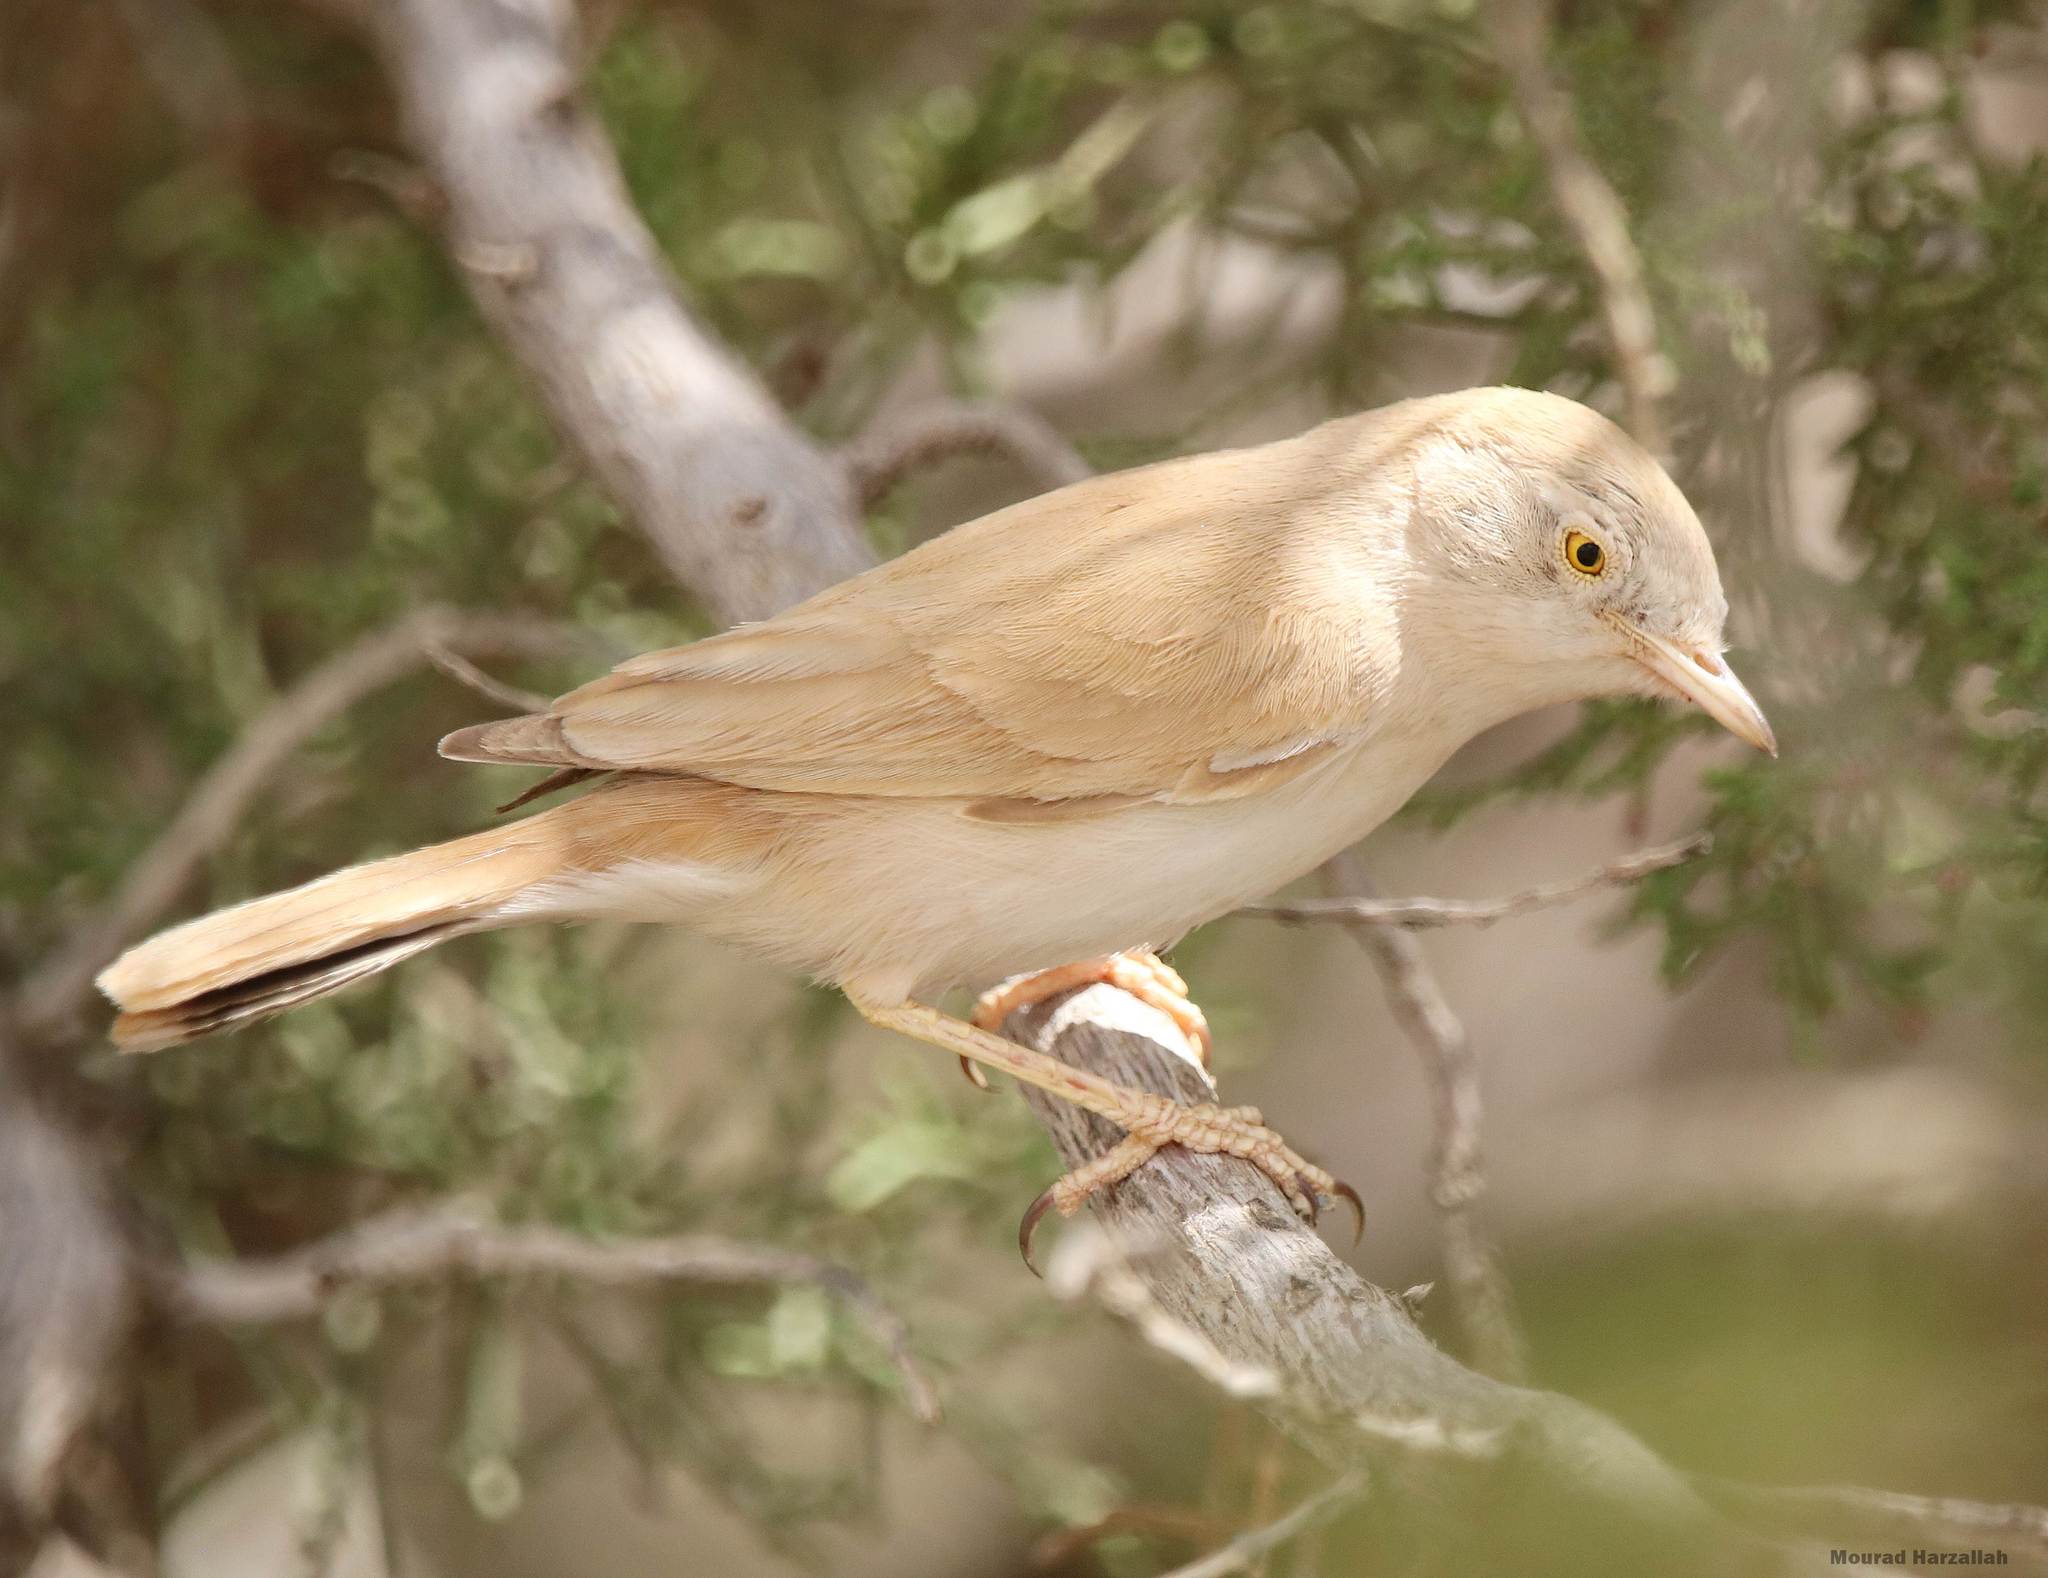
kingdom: Animalia
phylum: Chordata
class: Aves
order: Passeriformes
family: Sylviidae
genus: Sylvia
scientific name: Sylvia deserti
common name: African desert warbler
